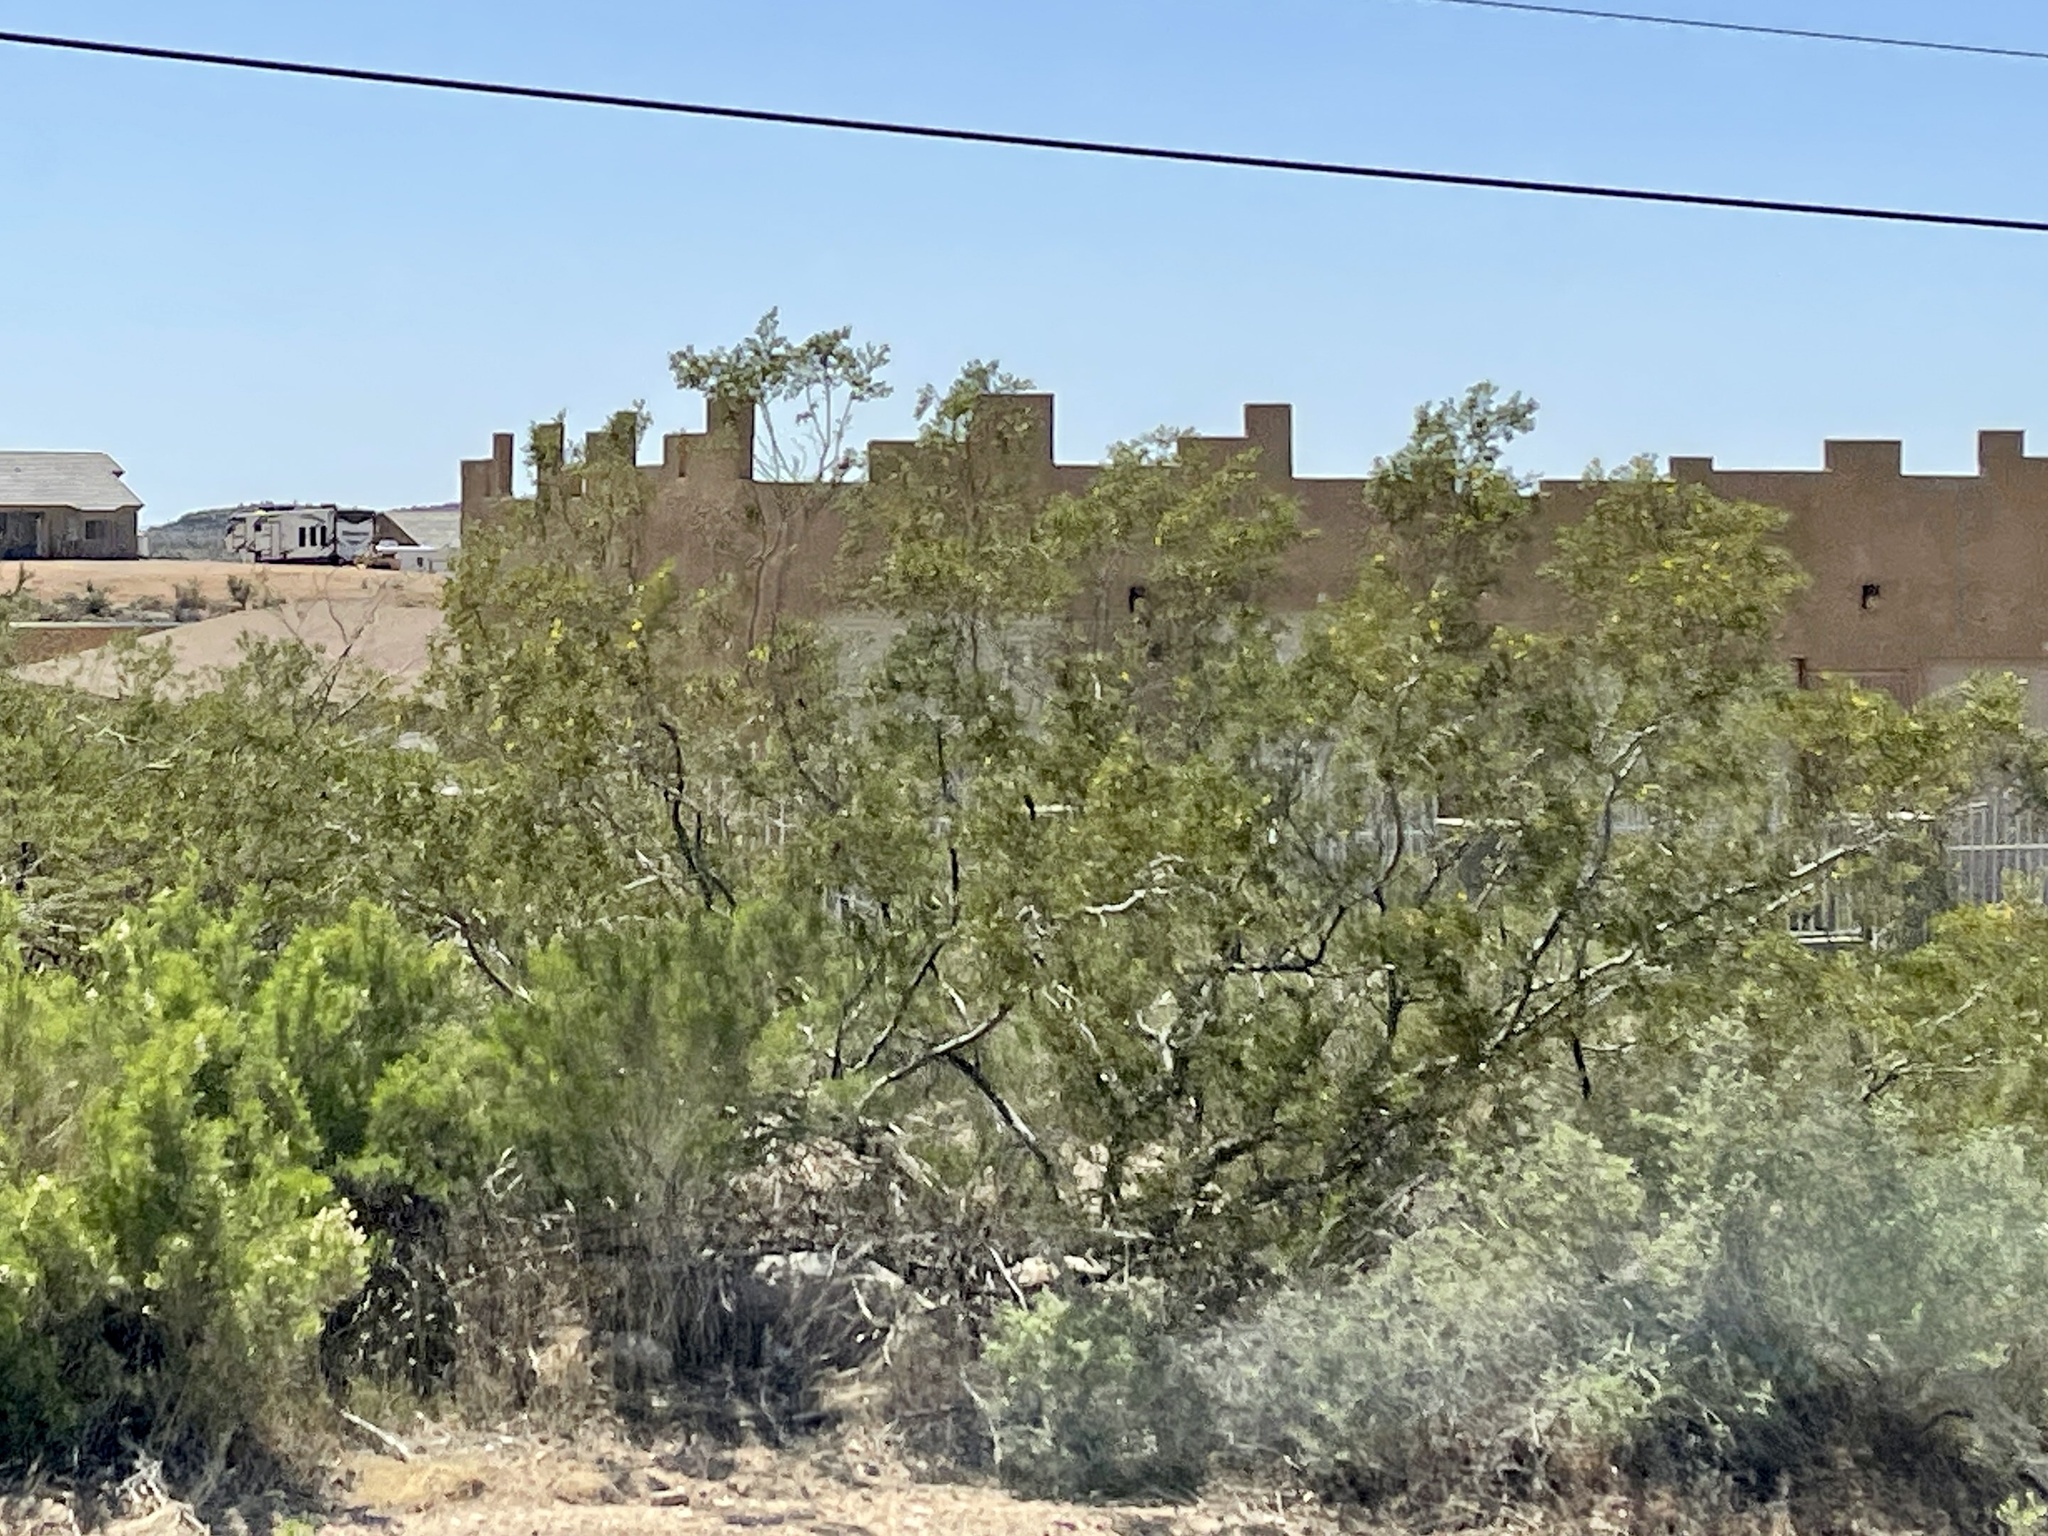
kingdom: Plantae
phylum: Tracheophyta
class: Magnoliopsida
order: Zygophyllales
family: Zygophyllaceae
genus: Larrea
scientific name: Larrea tridentata
